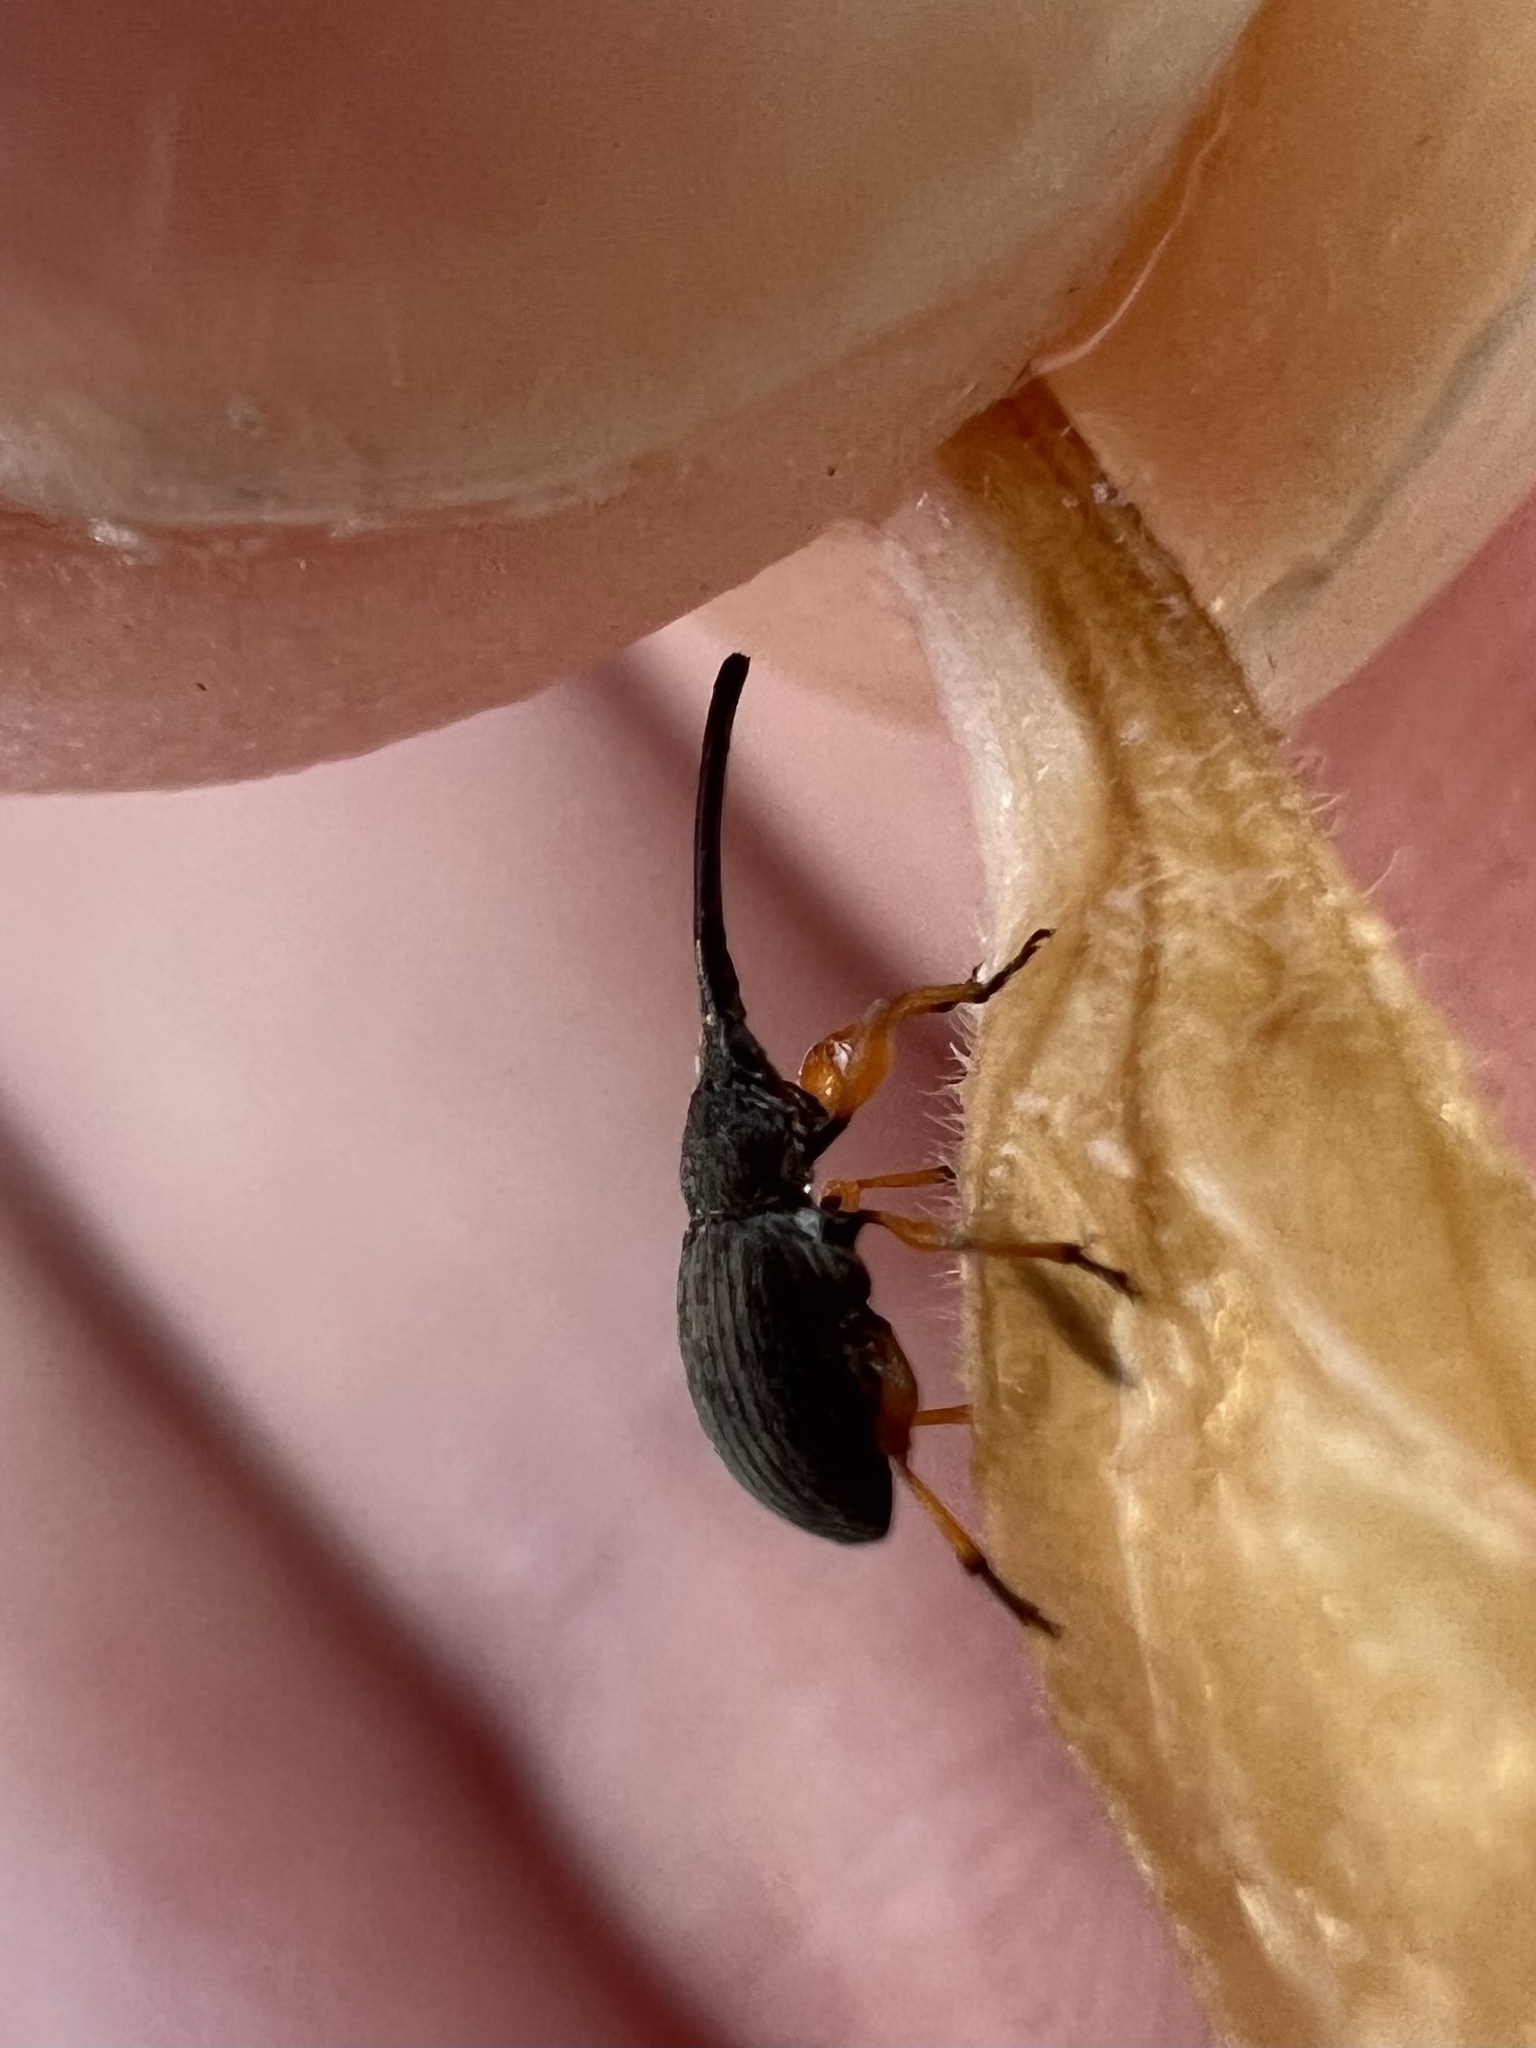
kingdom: Animalia
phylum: Arthropoda
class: Insecta
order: Coleoptera
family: Brentidae
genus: Rhopalapion
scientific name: Rhopalapion longirostre
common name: Hollyhock weevil
